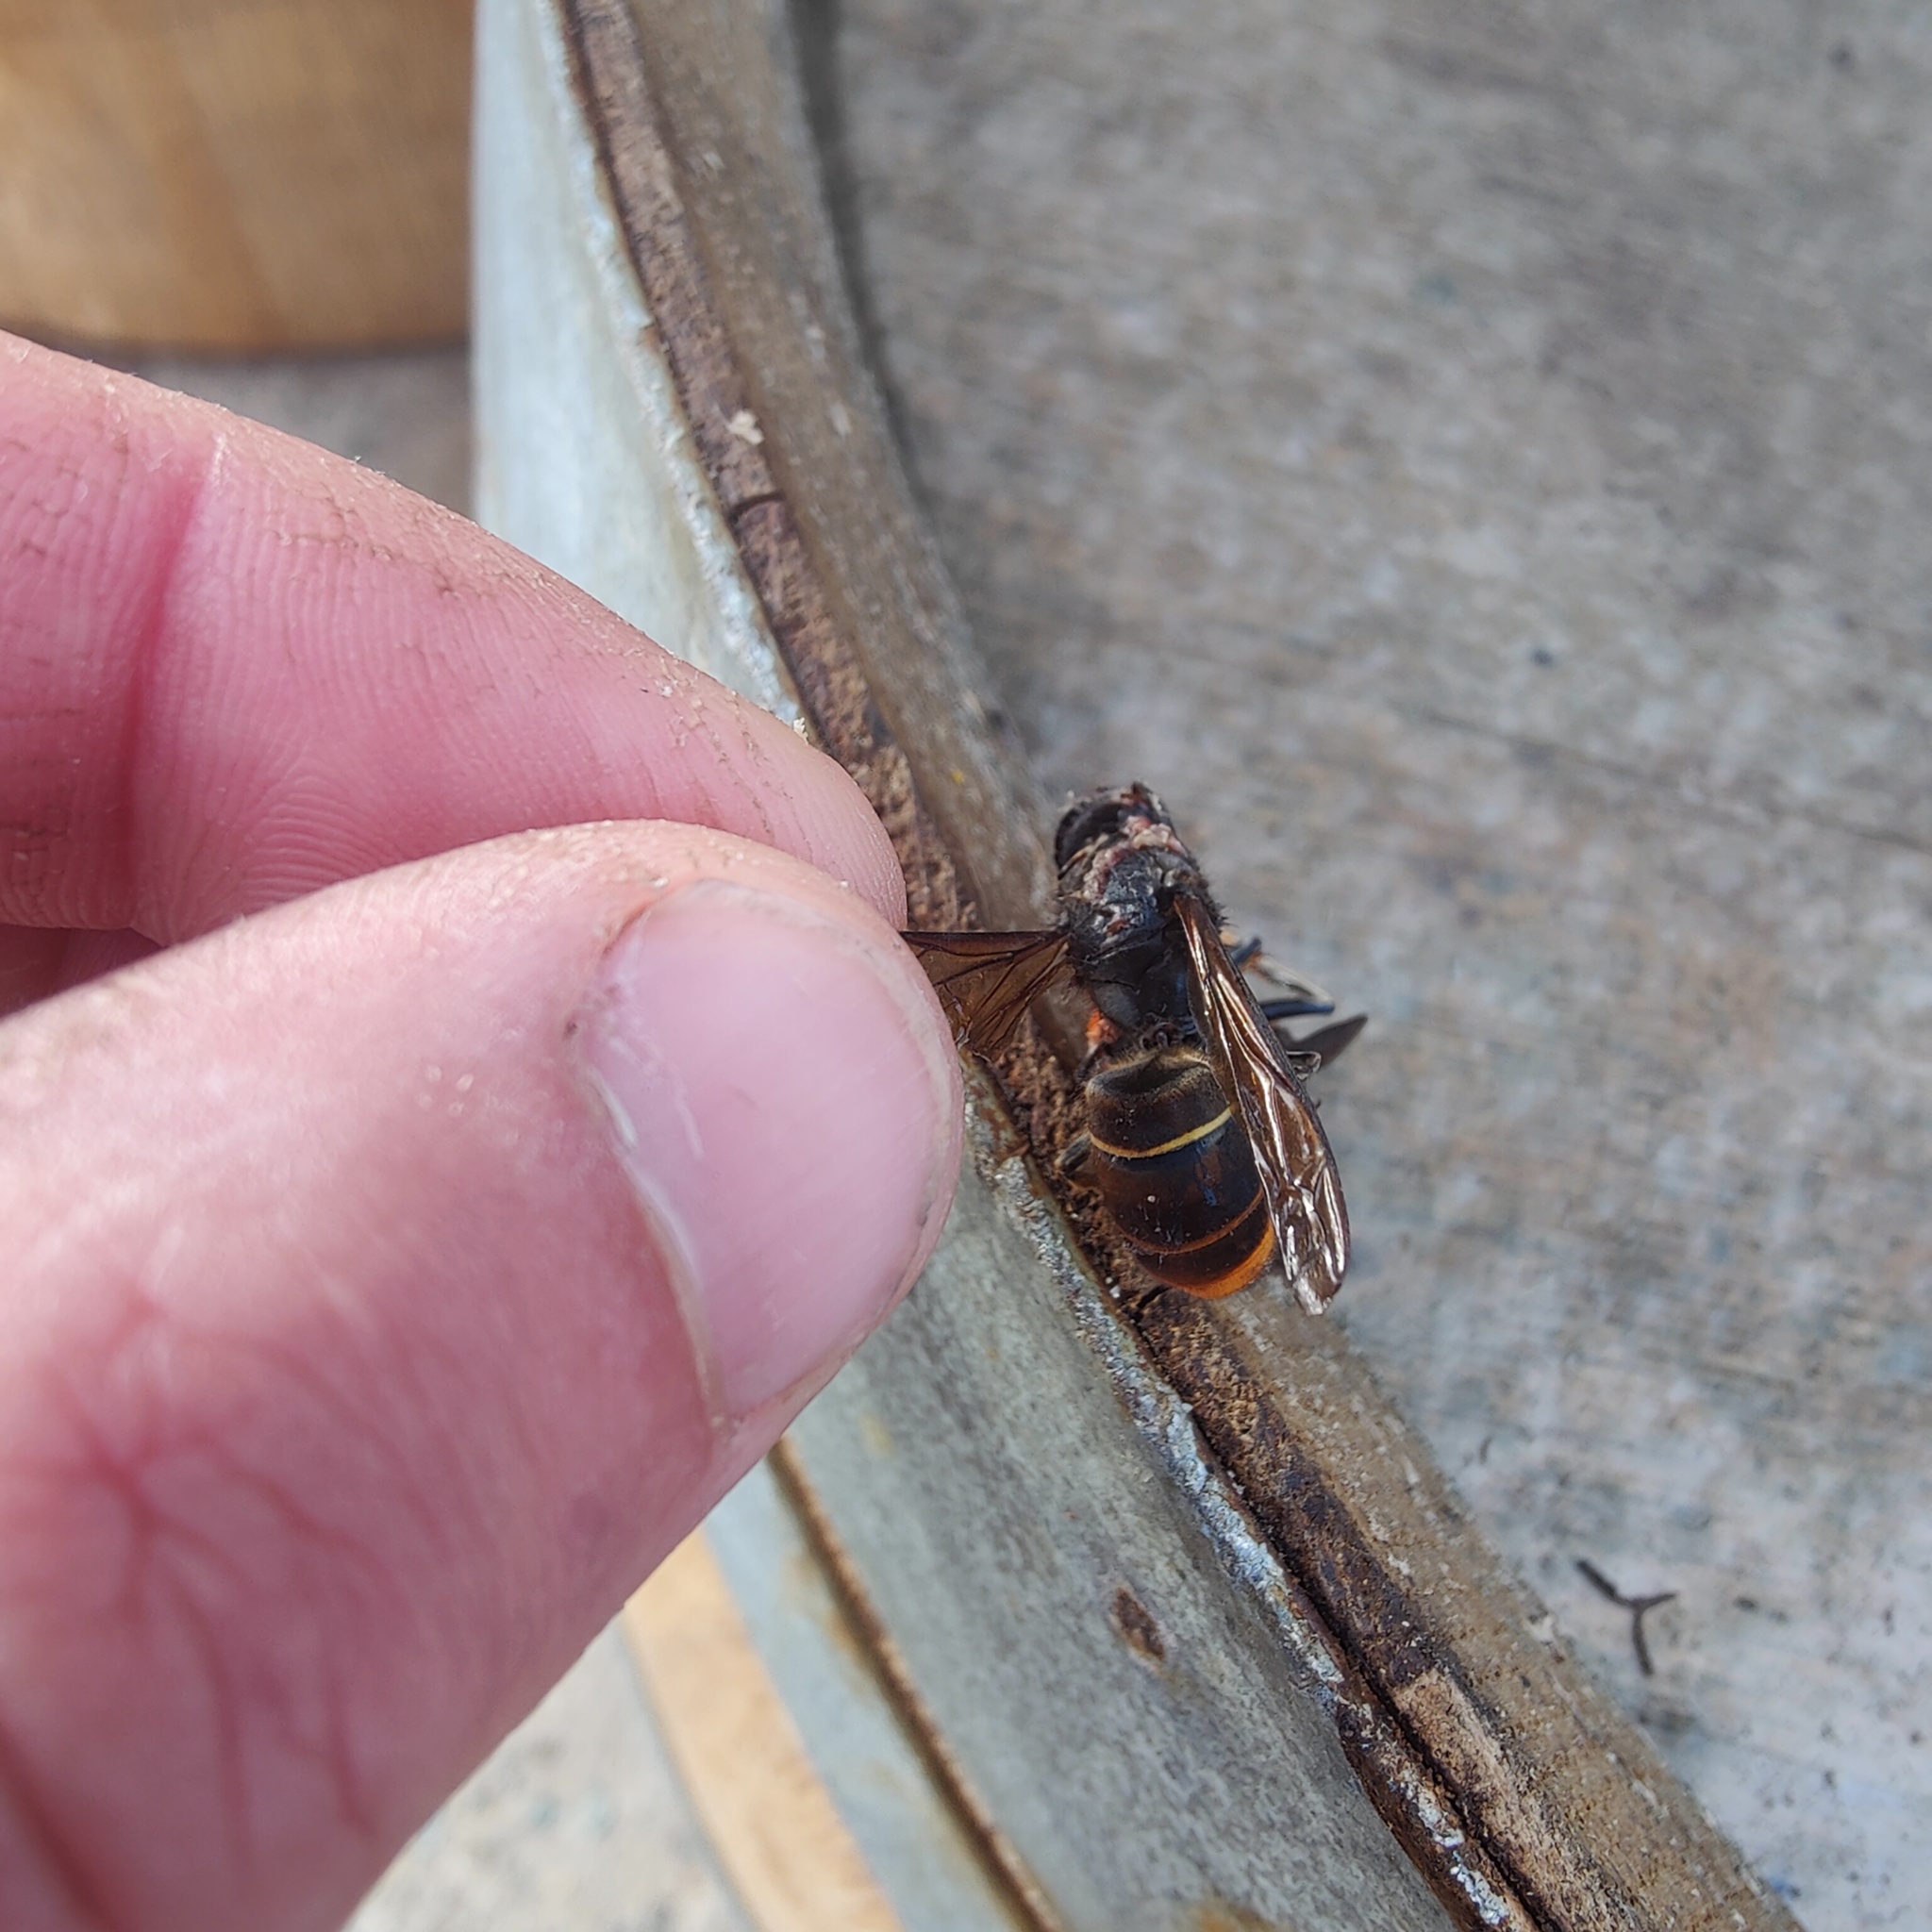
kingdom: Animalia
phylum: Arthropoda
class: Insecta
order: Hymenoptera
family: Vespidae
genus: Vespa
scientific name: Vespa velutina
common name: Asian hornet
